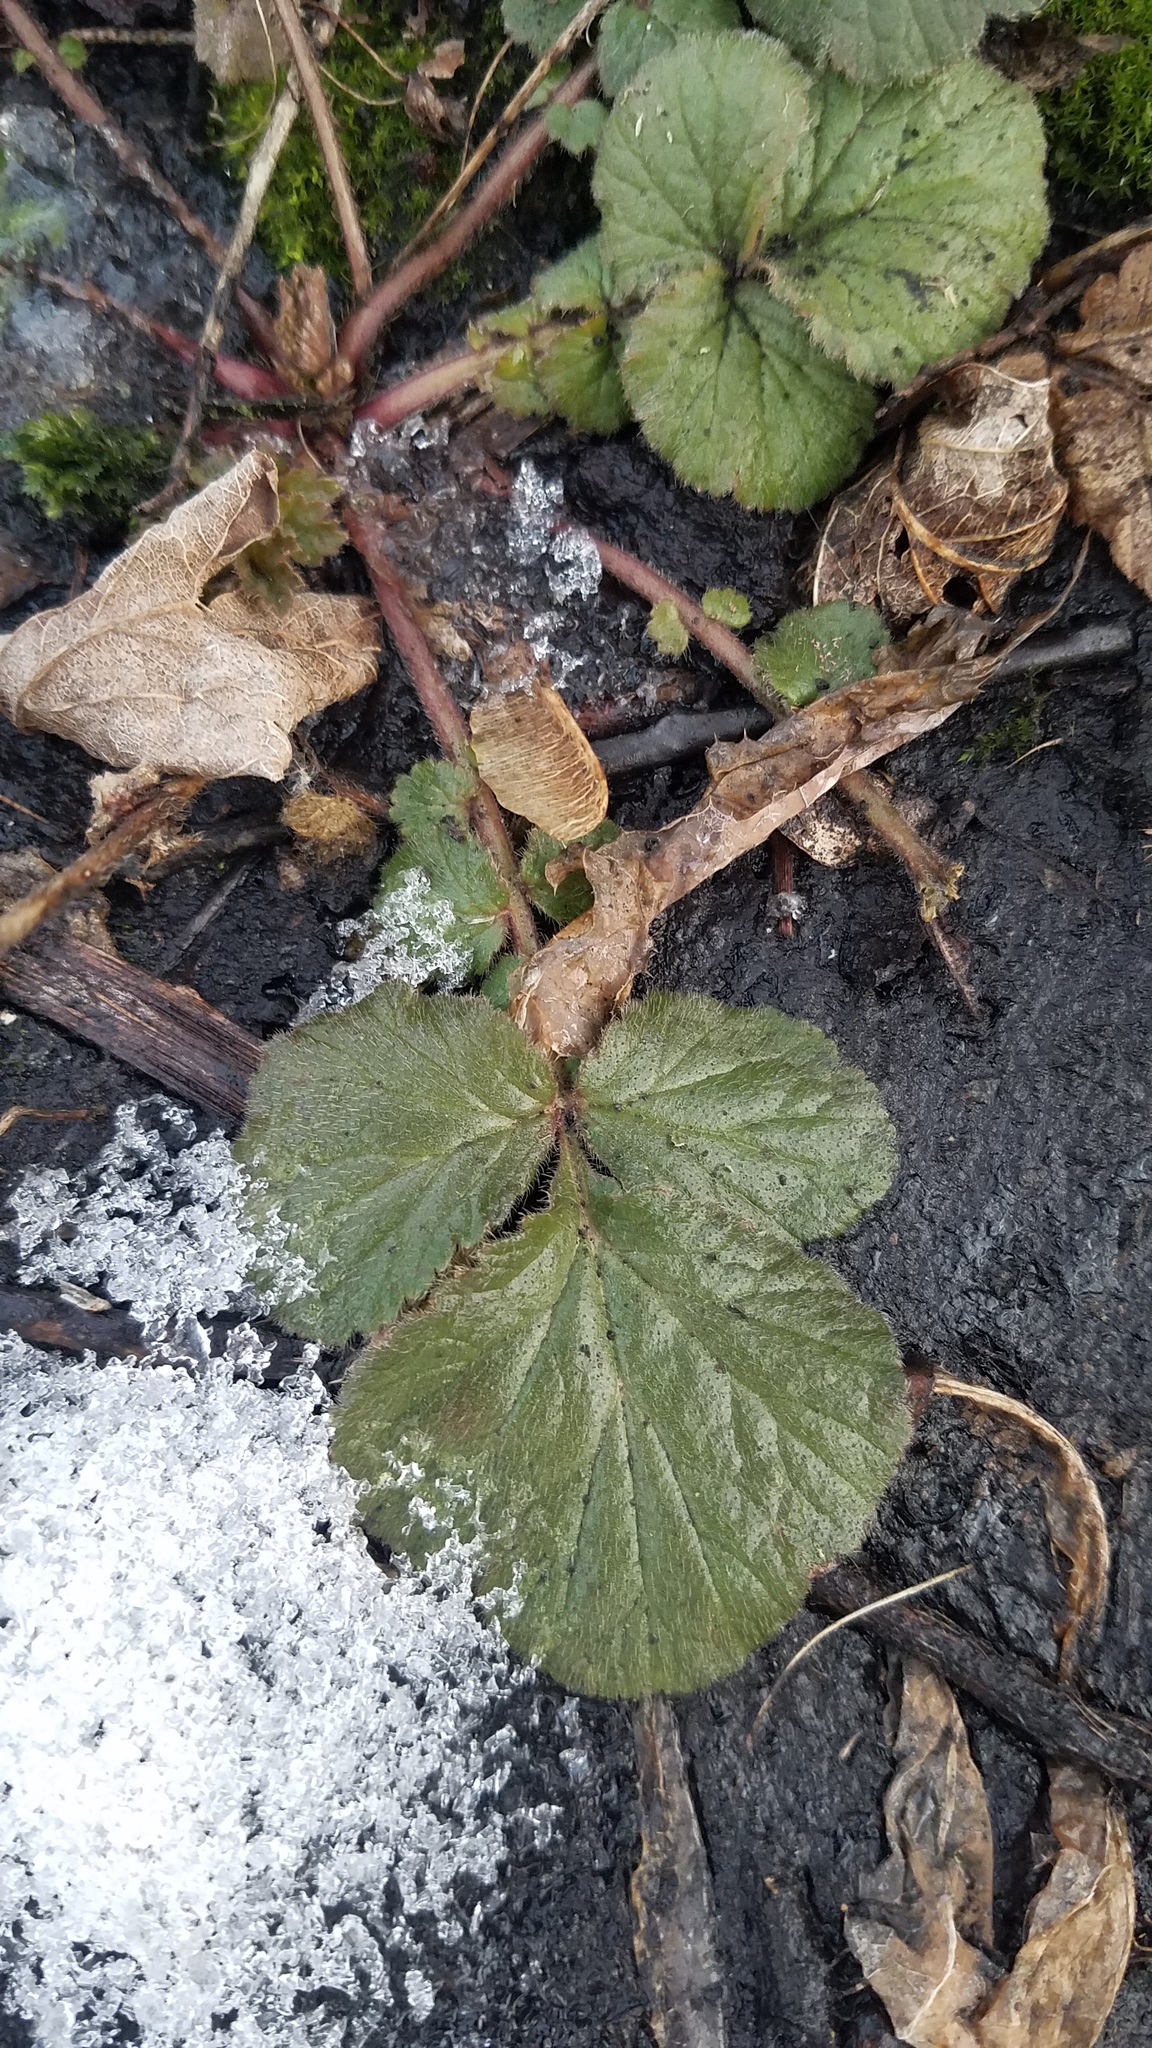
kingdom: Plantae
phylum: Tracheophyta
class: Magnoliopsida
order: Rosales
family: Rosaceae
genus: Geum
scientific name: Geum canadense
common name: White avens
